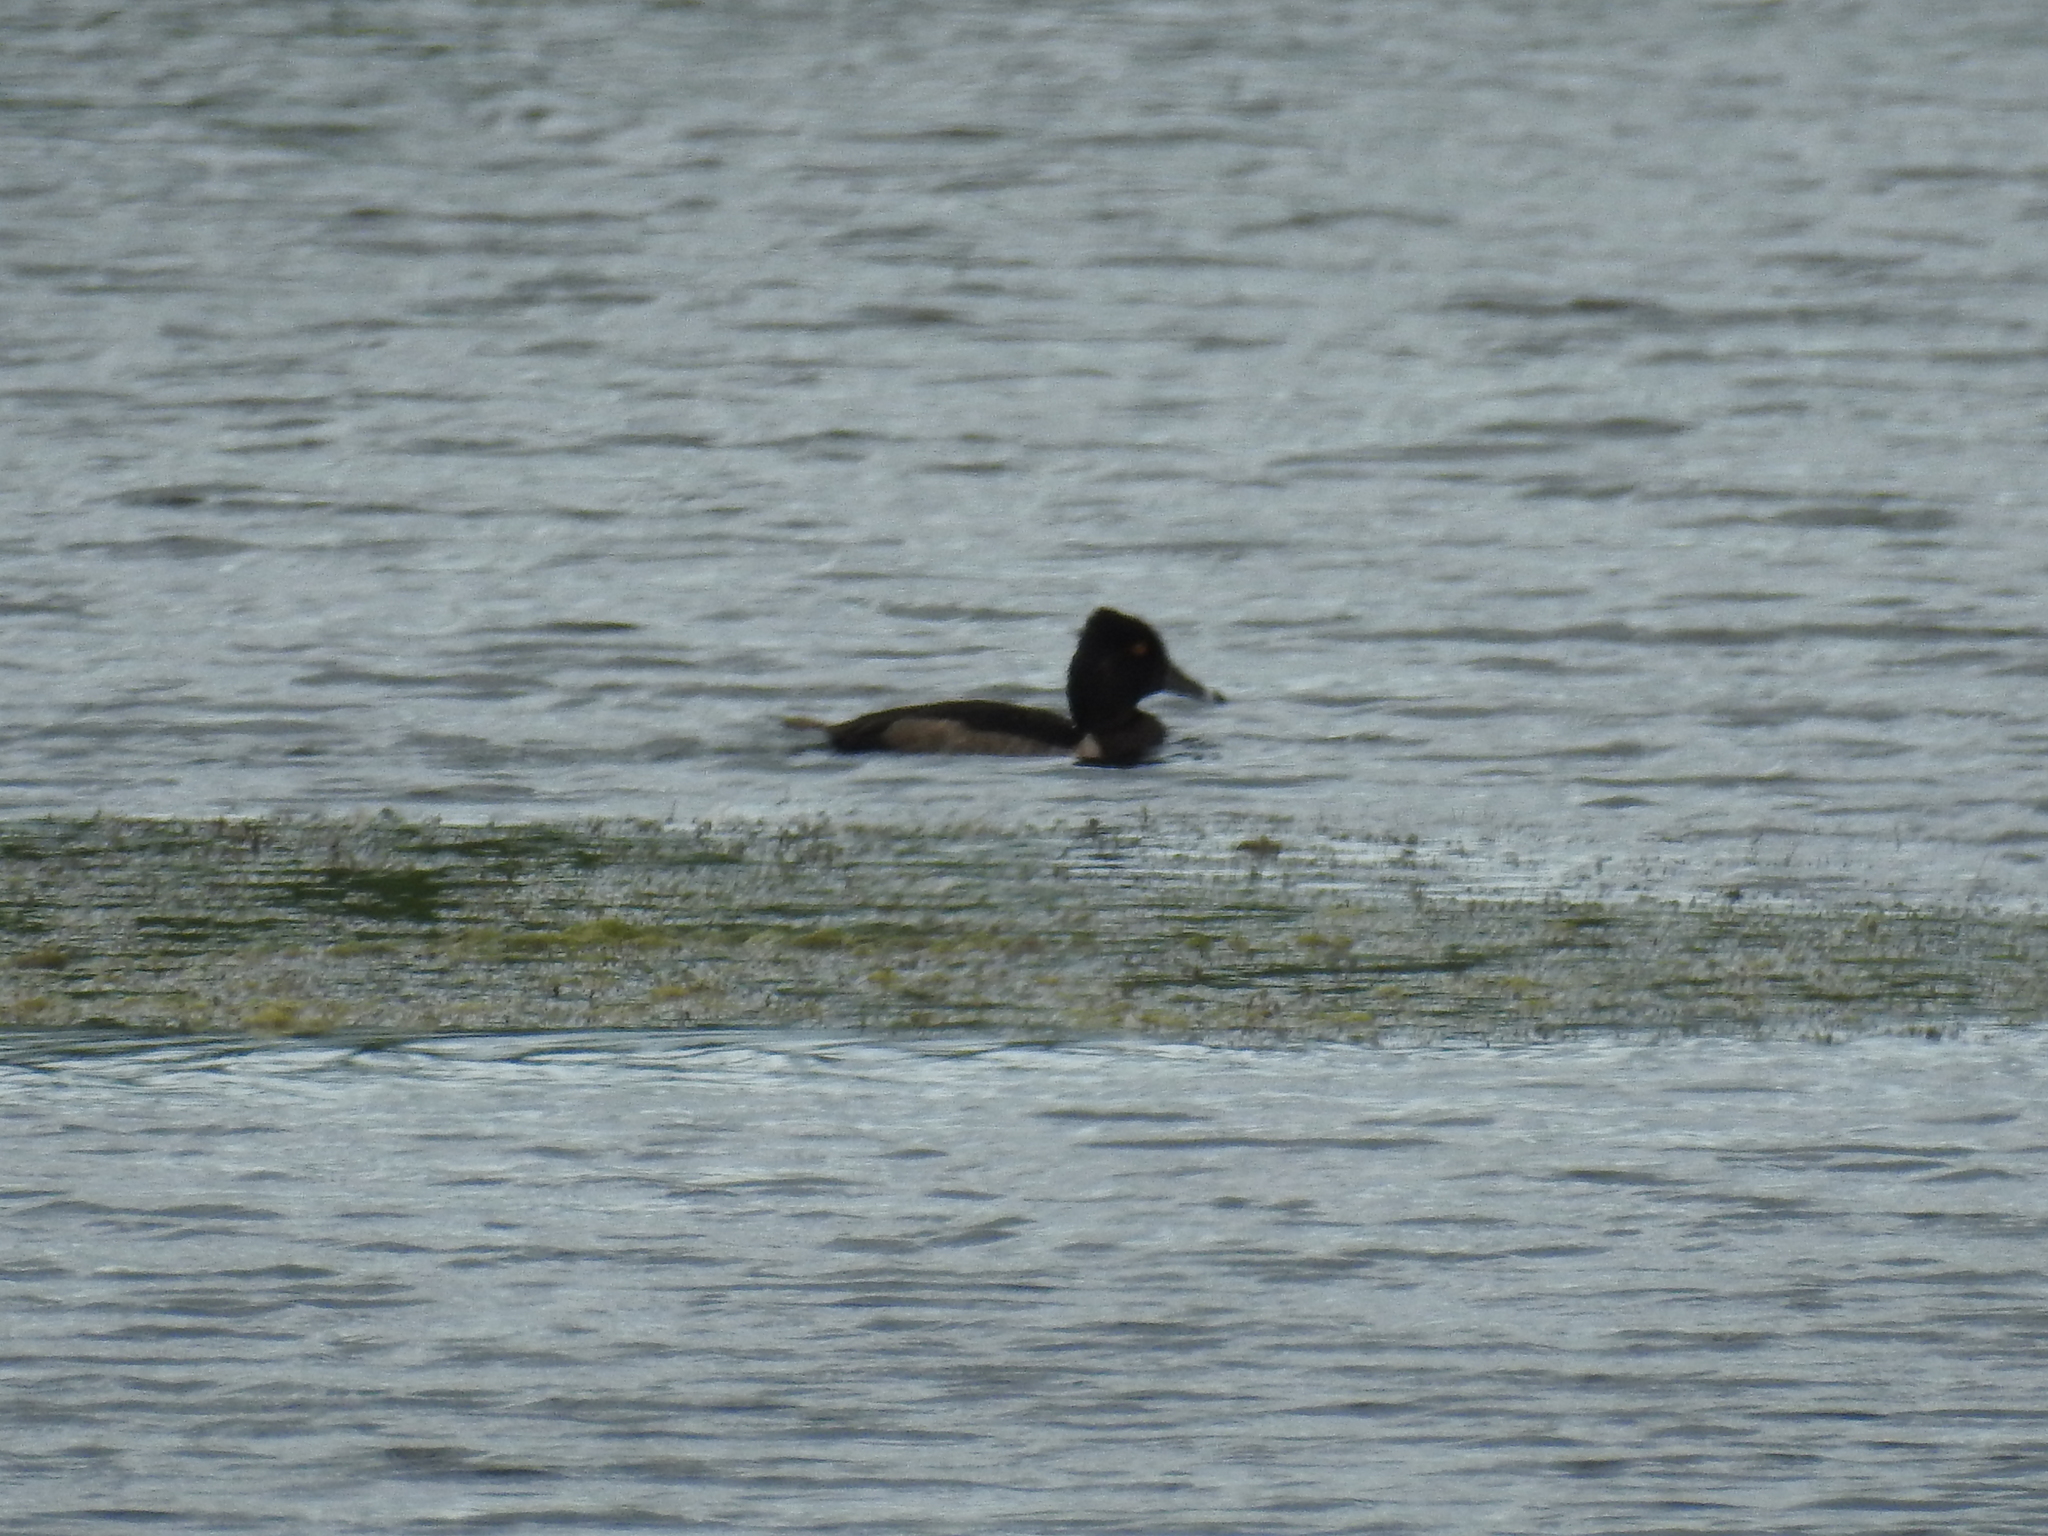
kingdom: Animalia
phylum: Chordata
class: Aves
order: Anseriformes
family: Anatidae
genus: Aythya
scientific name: Aythya collaris
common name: Ring-necked duck
